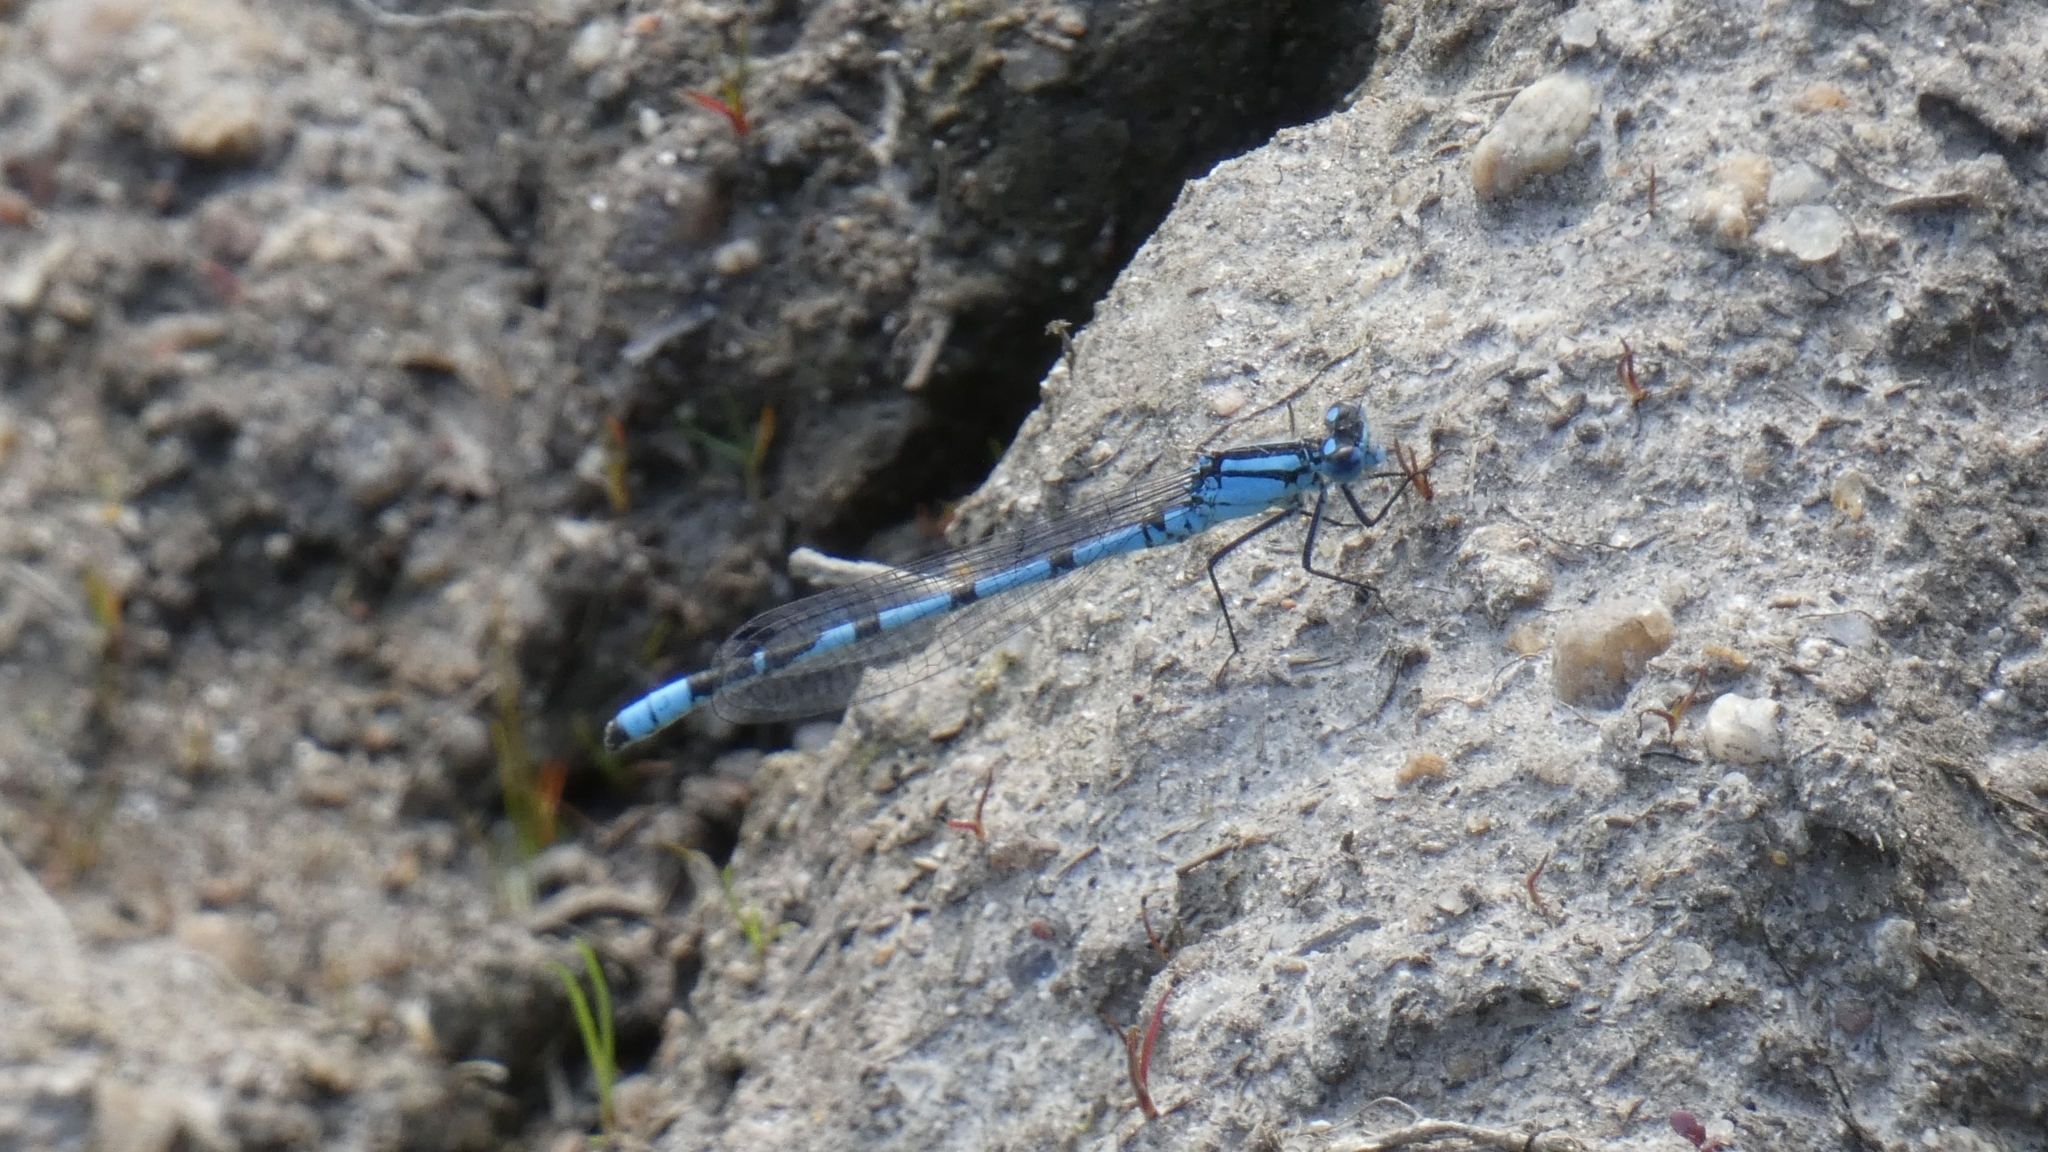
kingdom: Animalia
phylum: Arthropoda
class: Insecta
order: Odonata
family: Coenagrionidae
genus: Enallagma
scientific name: Enallagma cyathigerum
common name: Common blue damselfly
